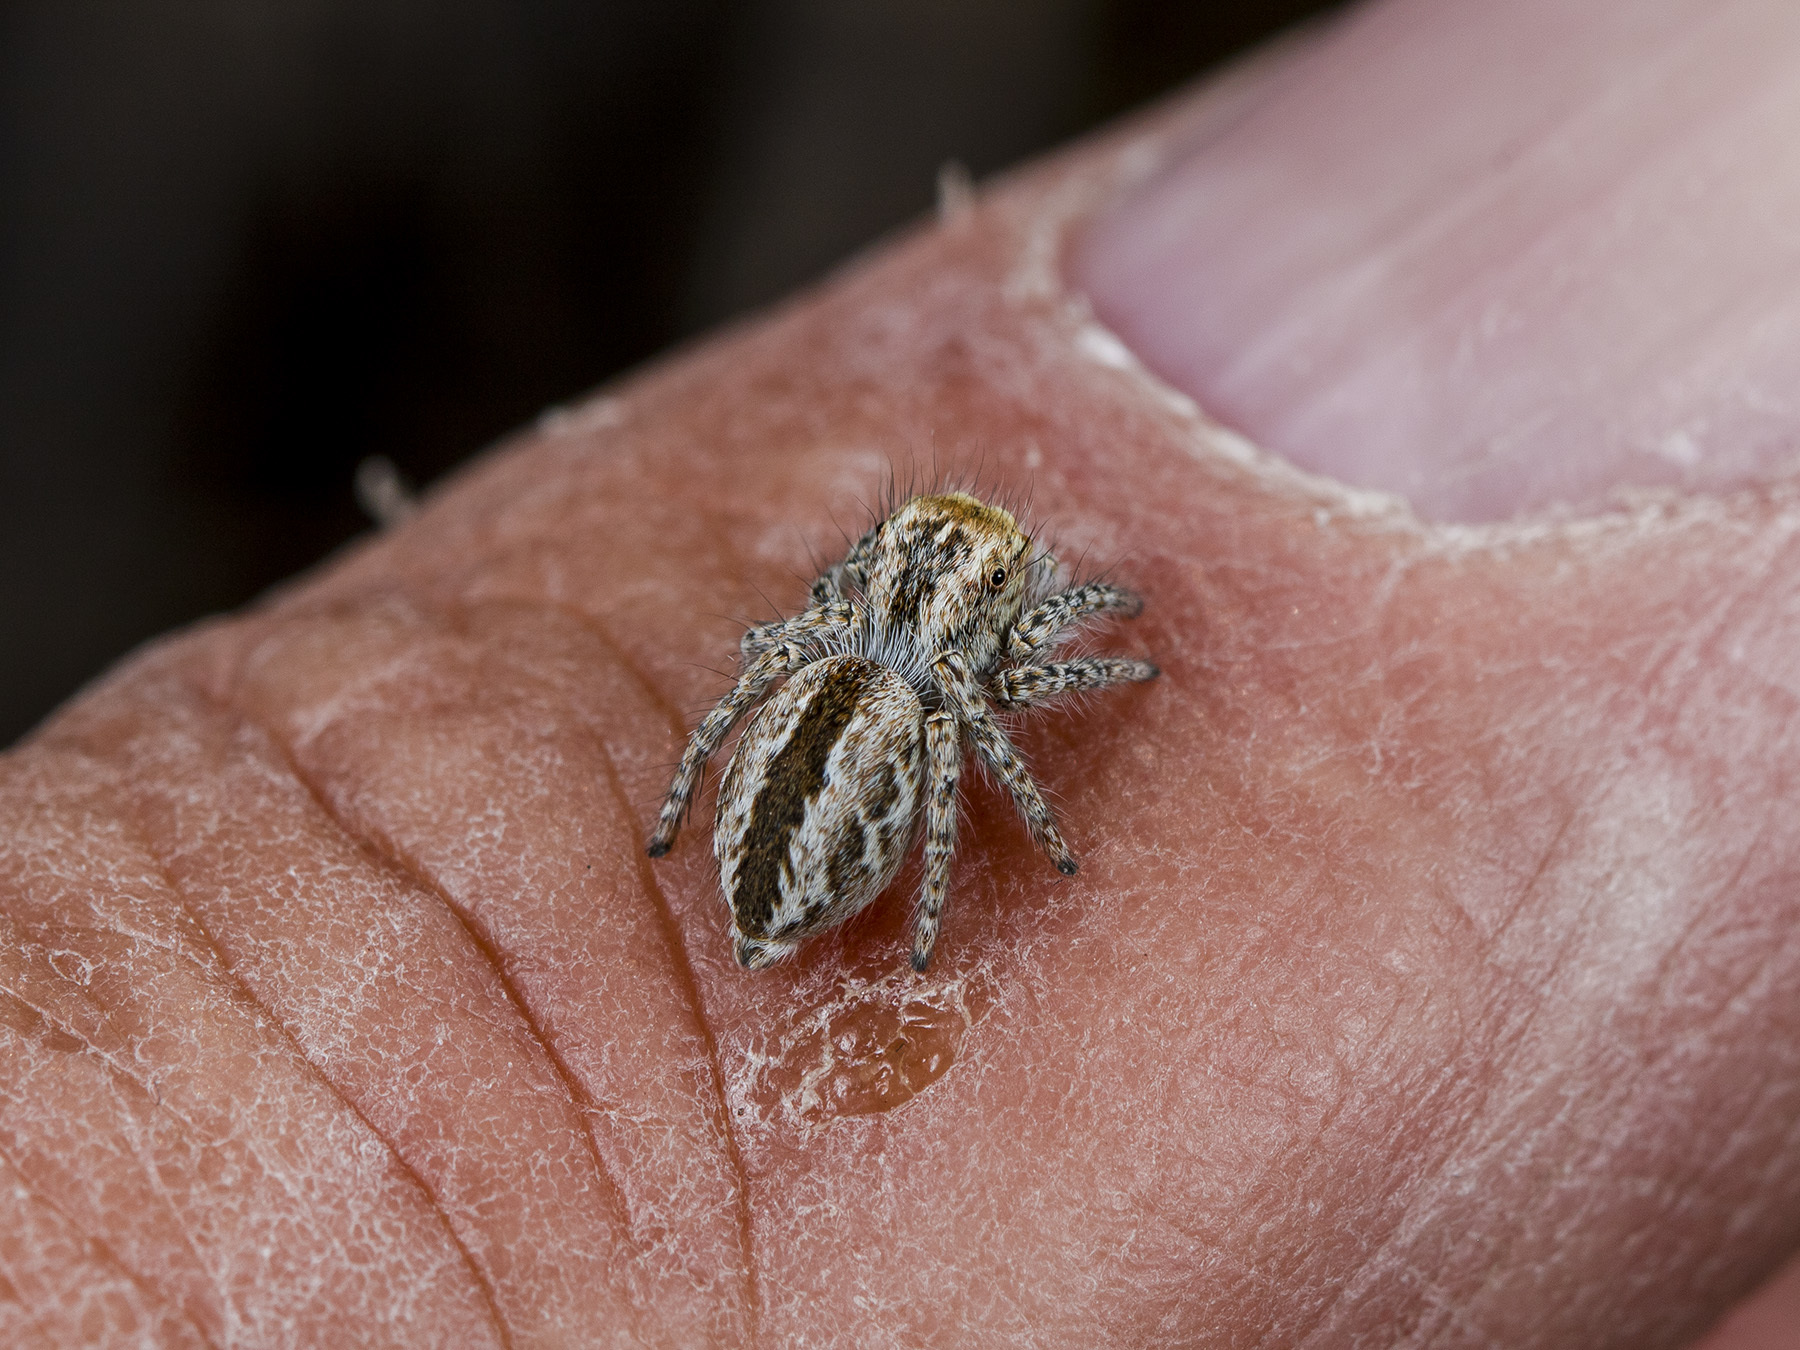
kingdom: Animalia
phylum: Arthropoda
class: Arachnida
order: Araneae
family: Salticidae
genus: Mogrus
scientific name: Mogrus larisae
